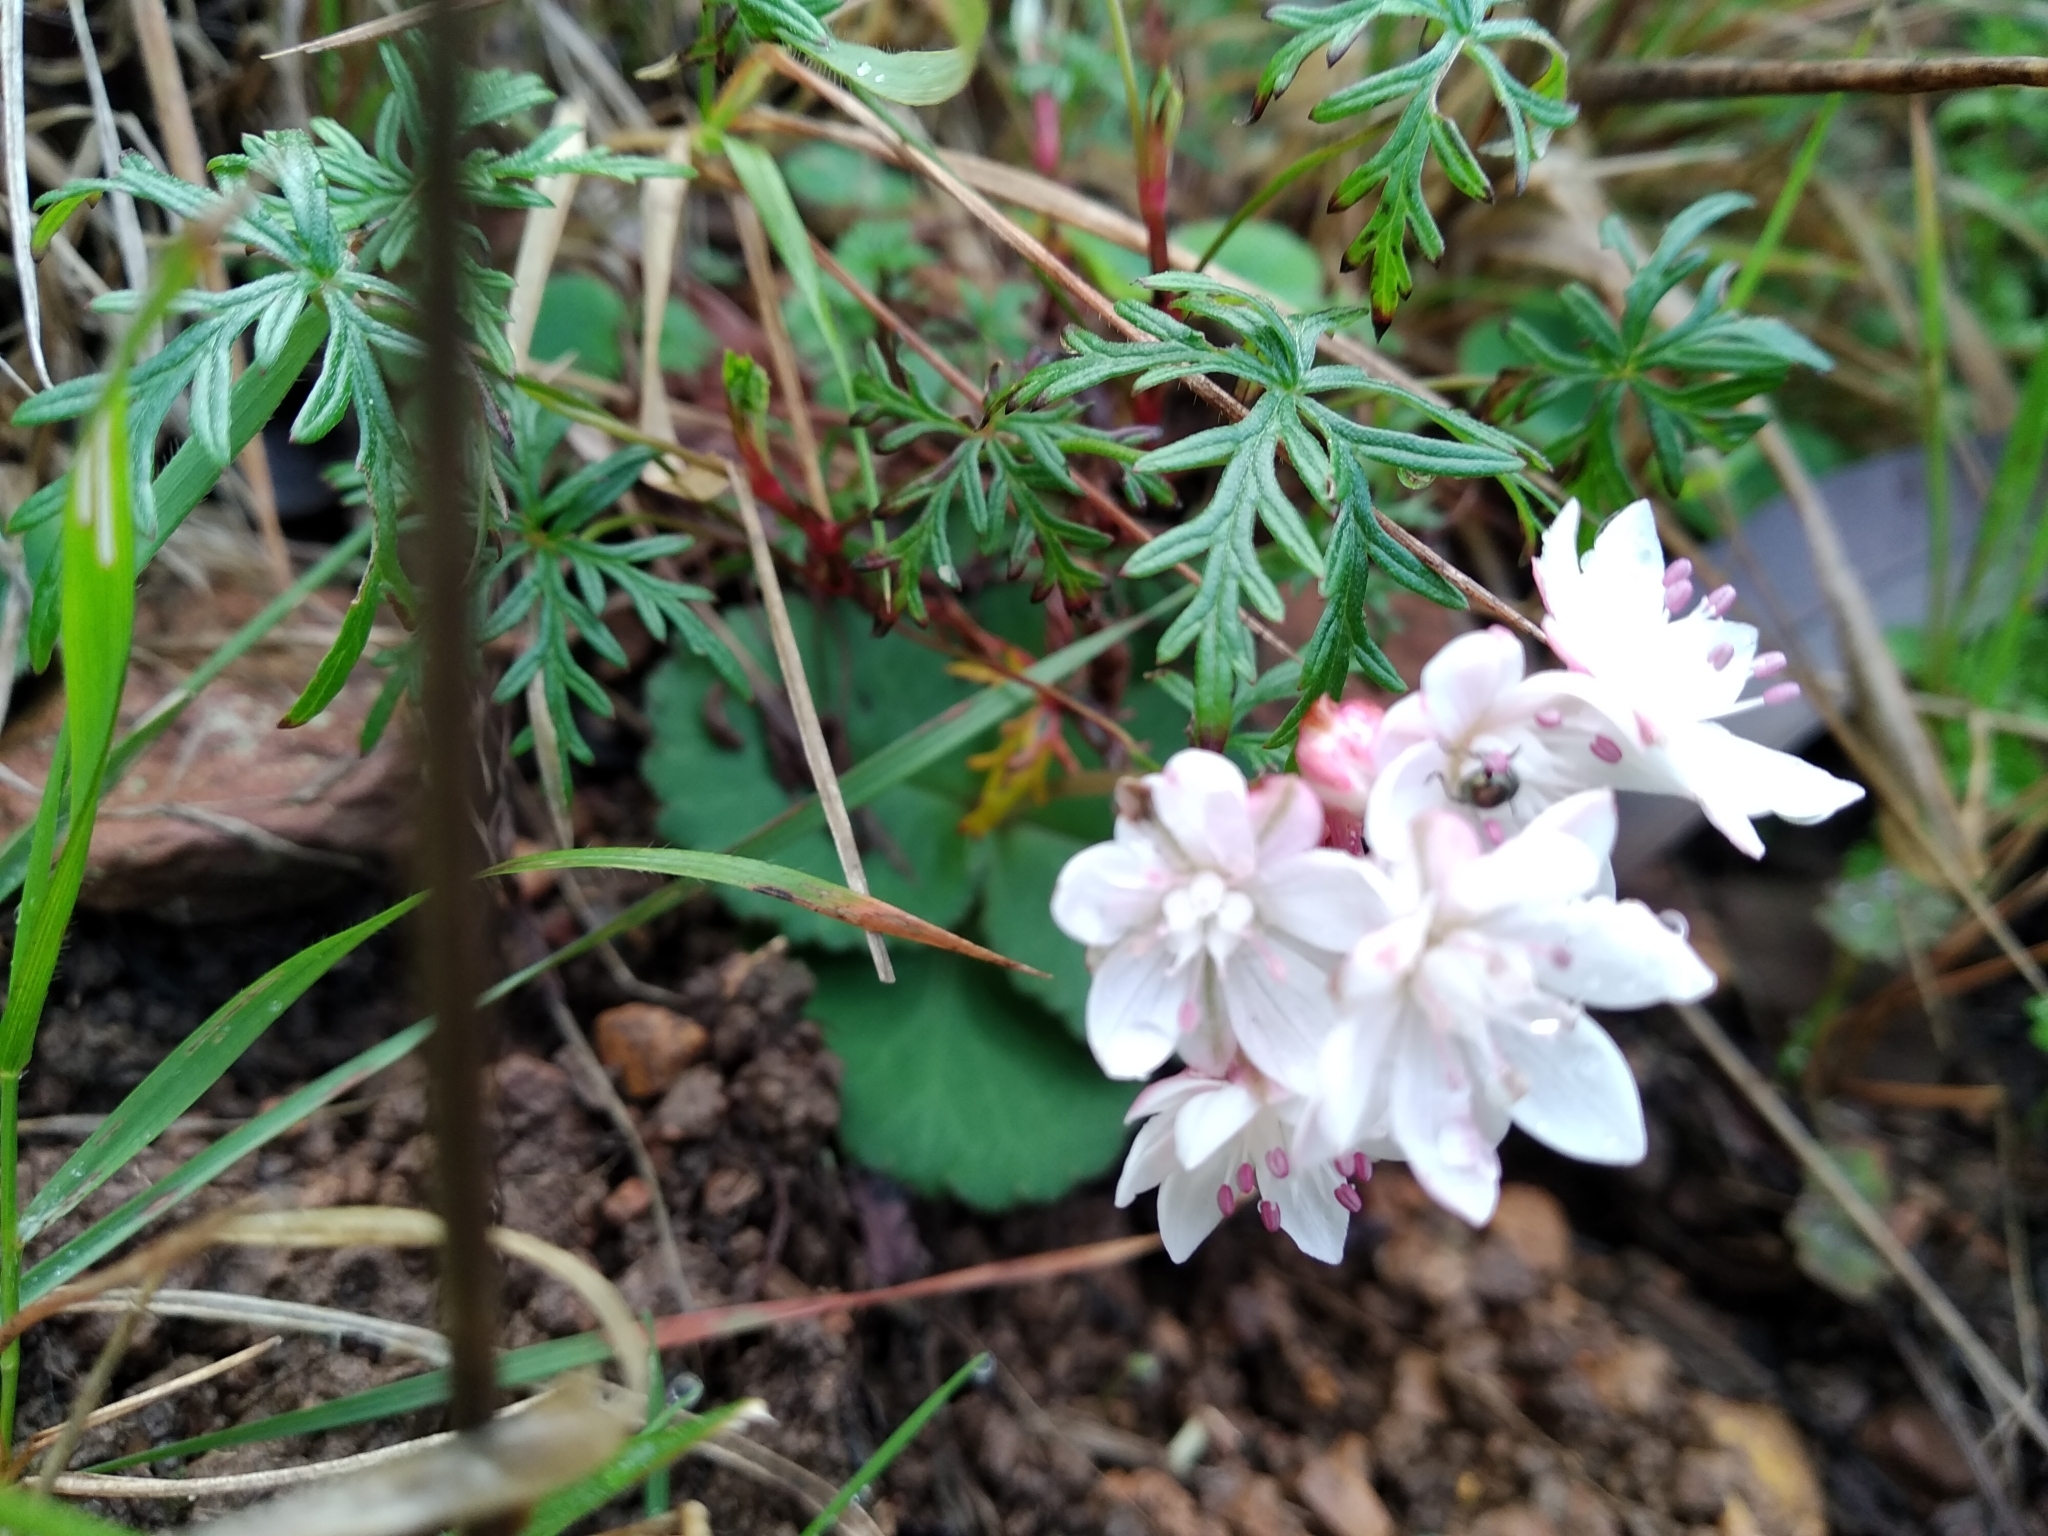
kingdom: Plantae
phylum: Tracheophyta
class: Magnoliopsida
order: Saxifragales
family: Crassulaceae
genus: Crassula
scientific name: Crassula capensis
